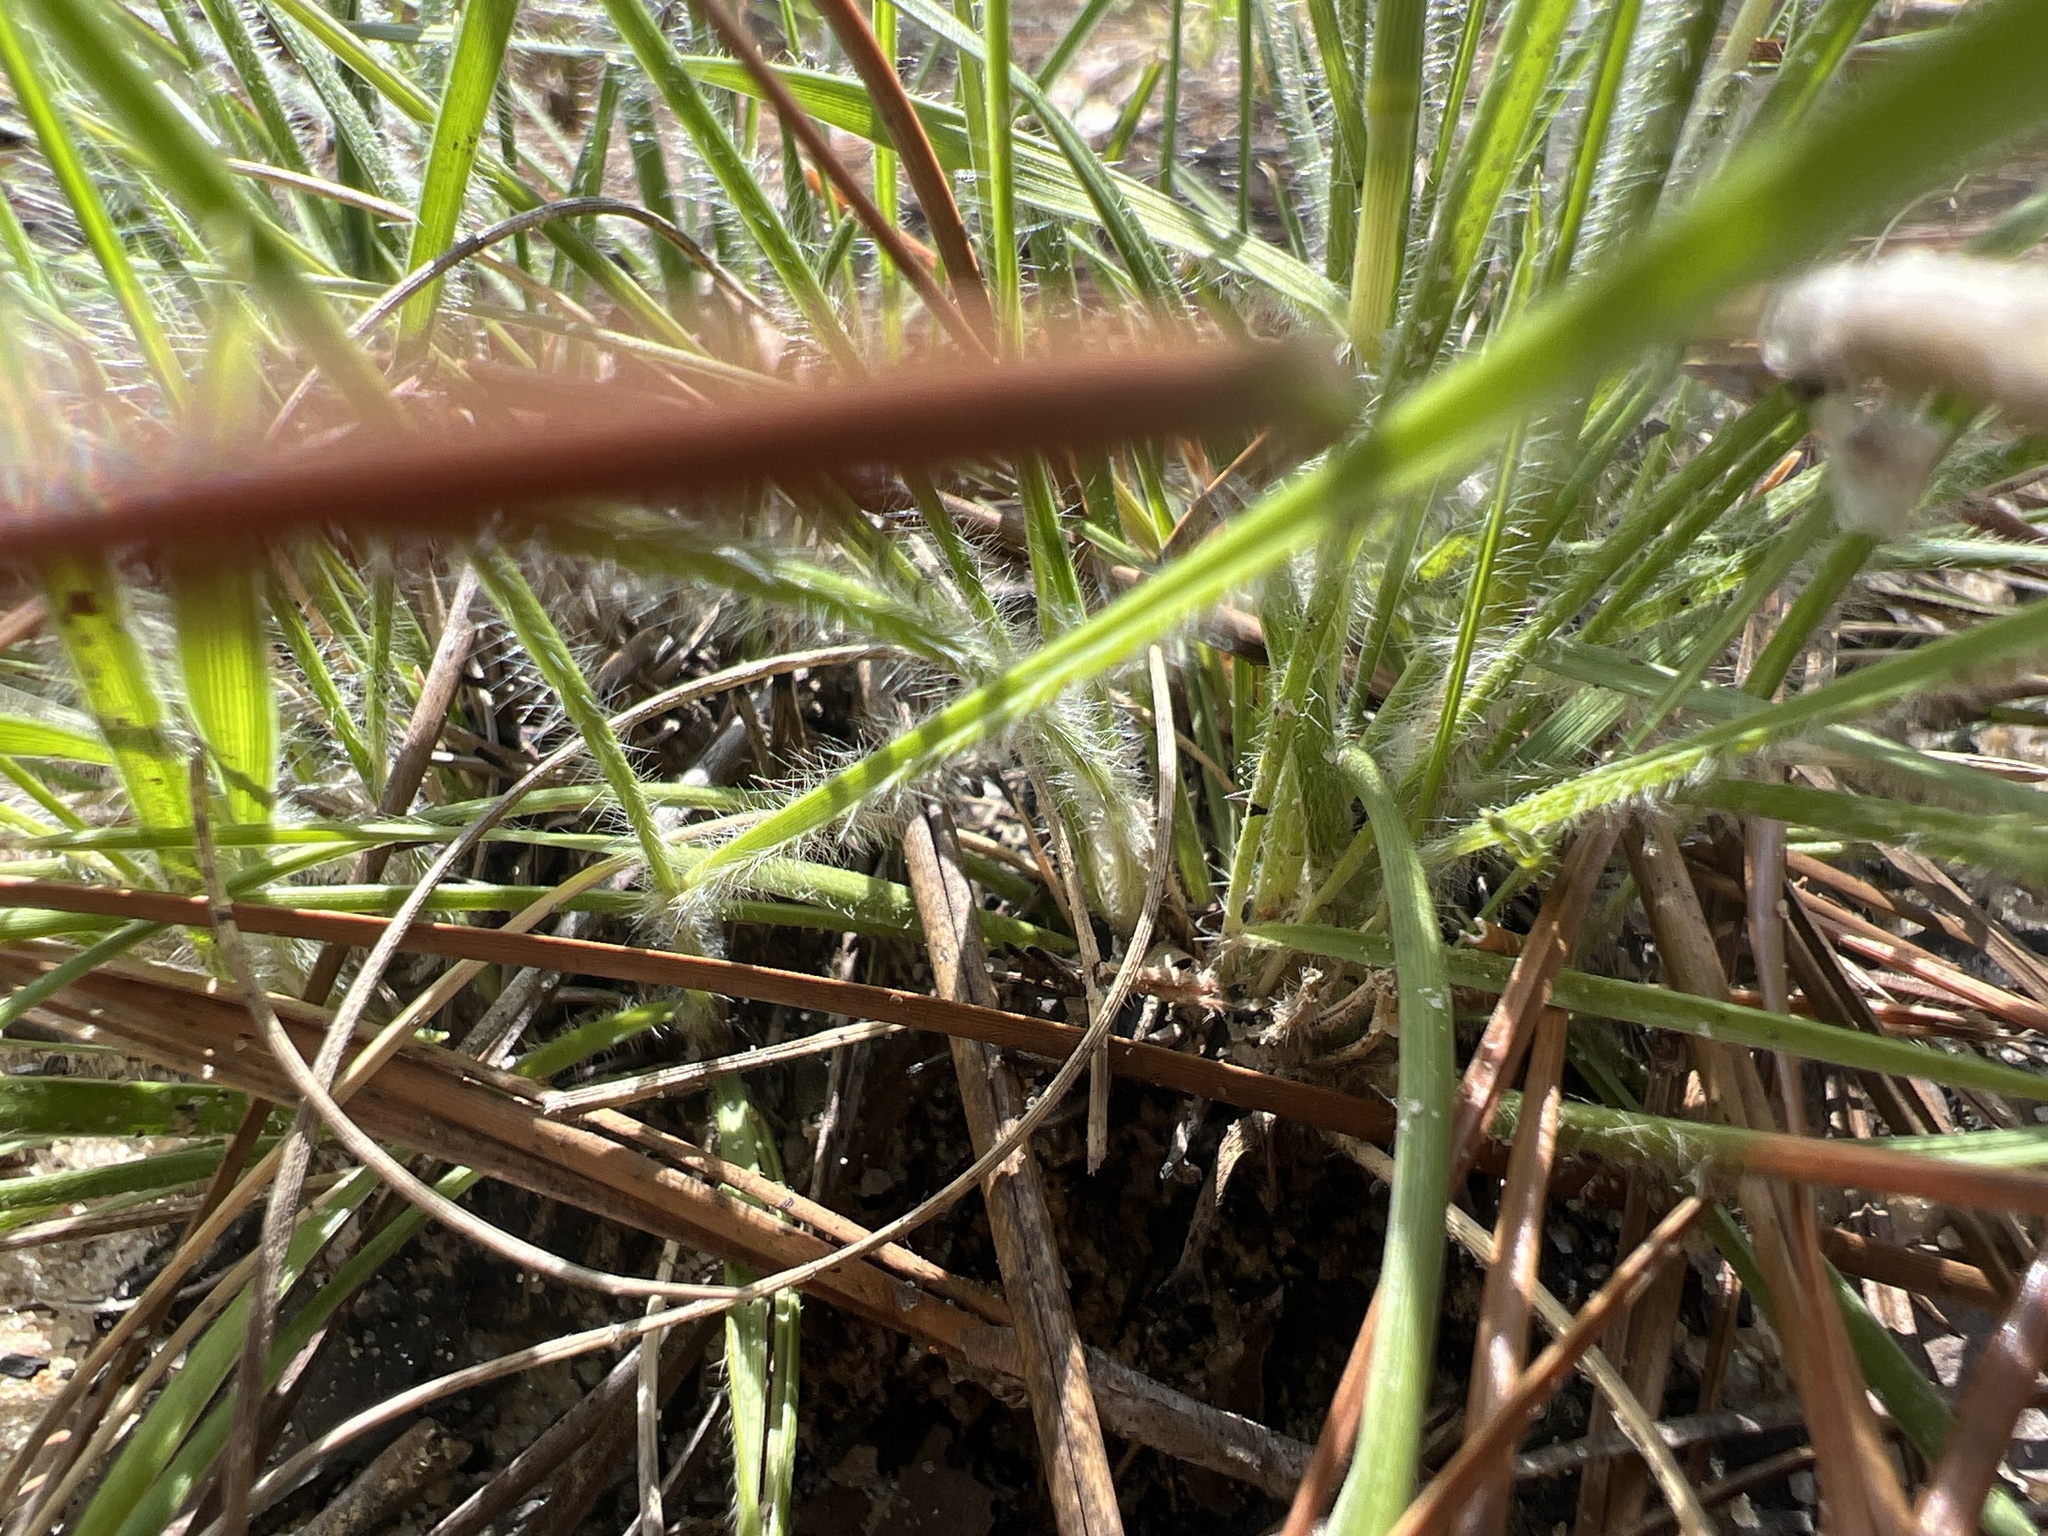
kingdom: Plantae
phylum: Tracheophyta
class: Liliopsida
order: Poales
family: Poaceae
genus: Danthonia
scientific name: Danthonia sericea
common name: Downy danthonia
